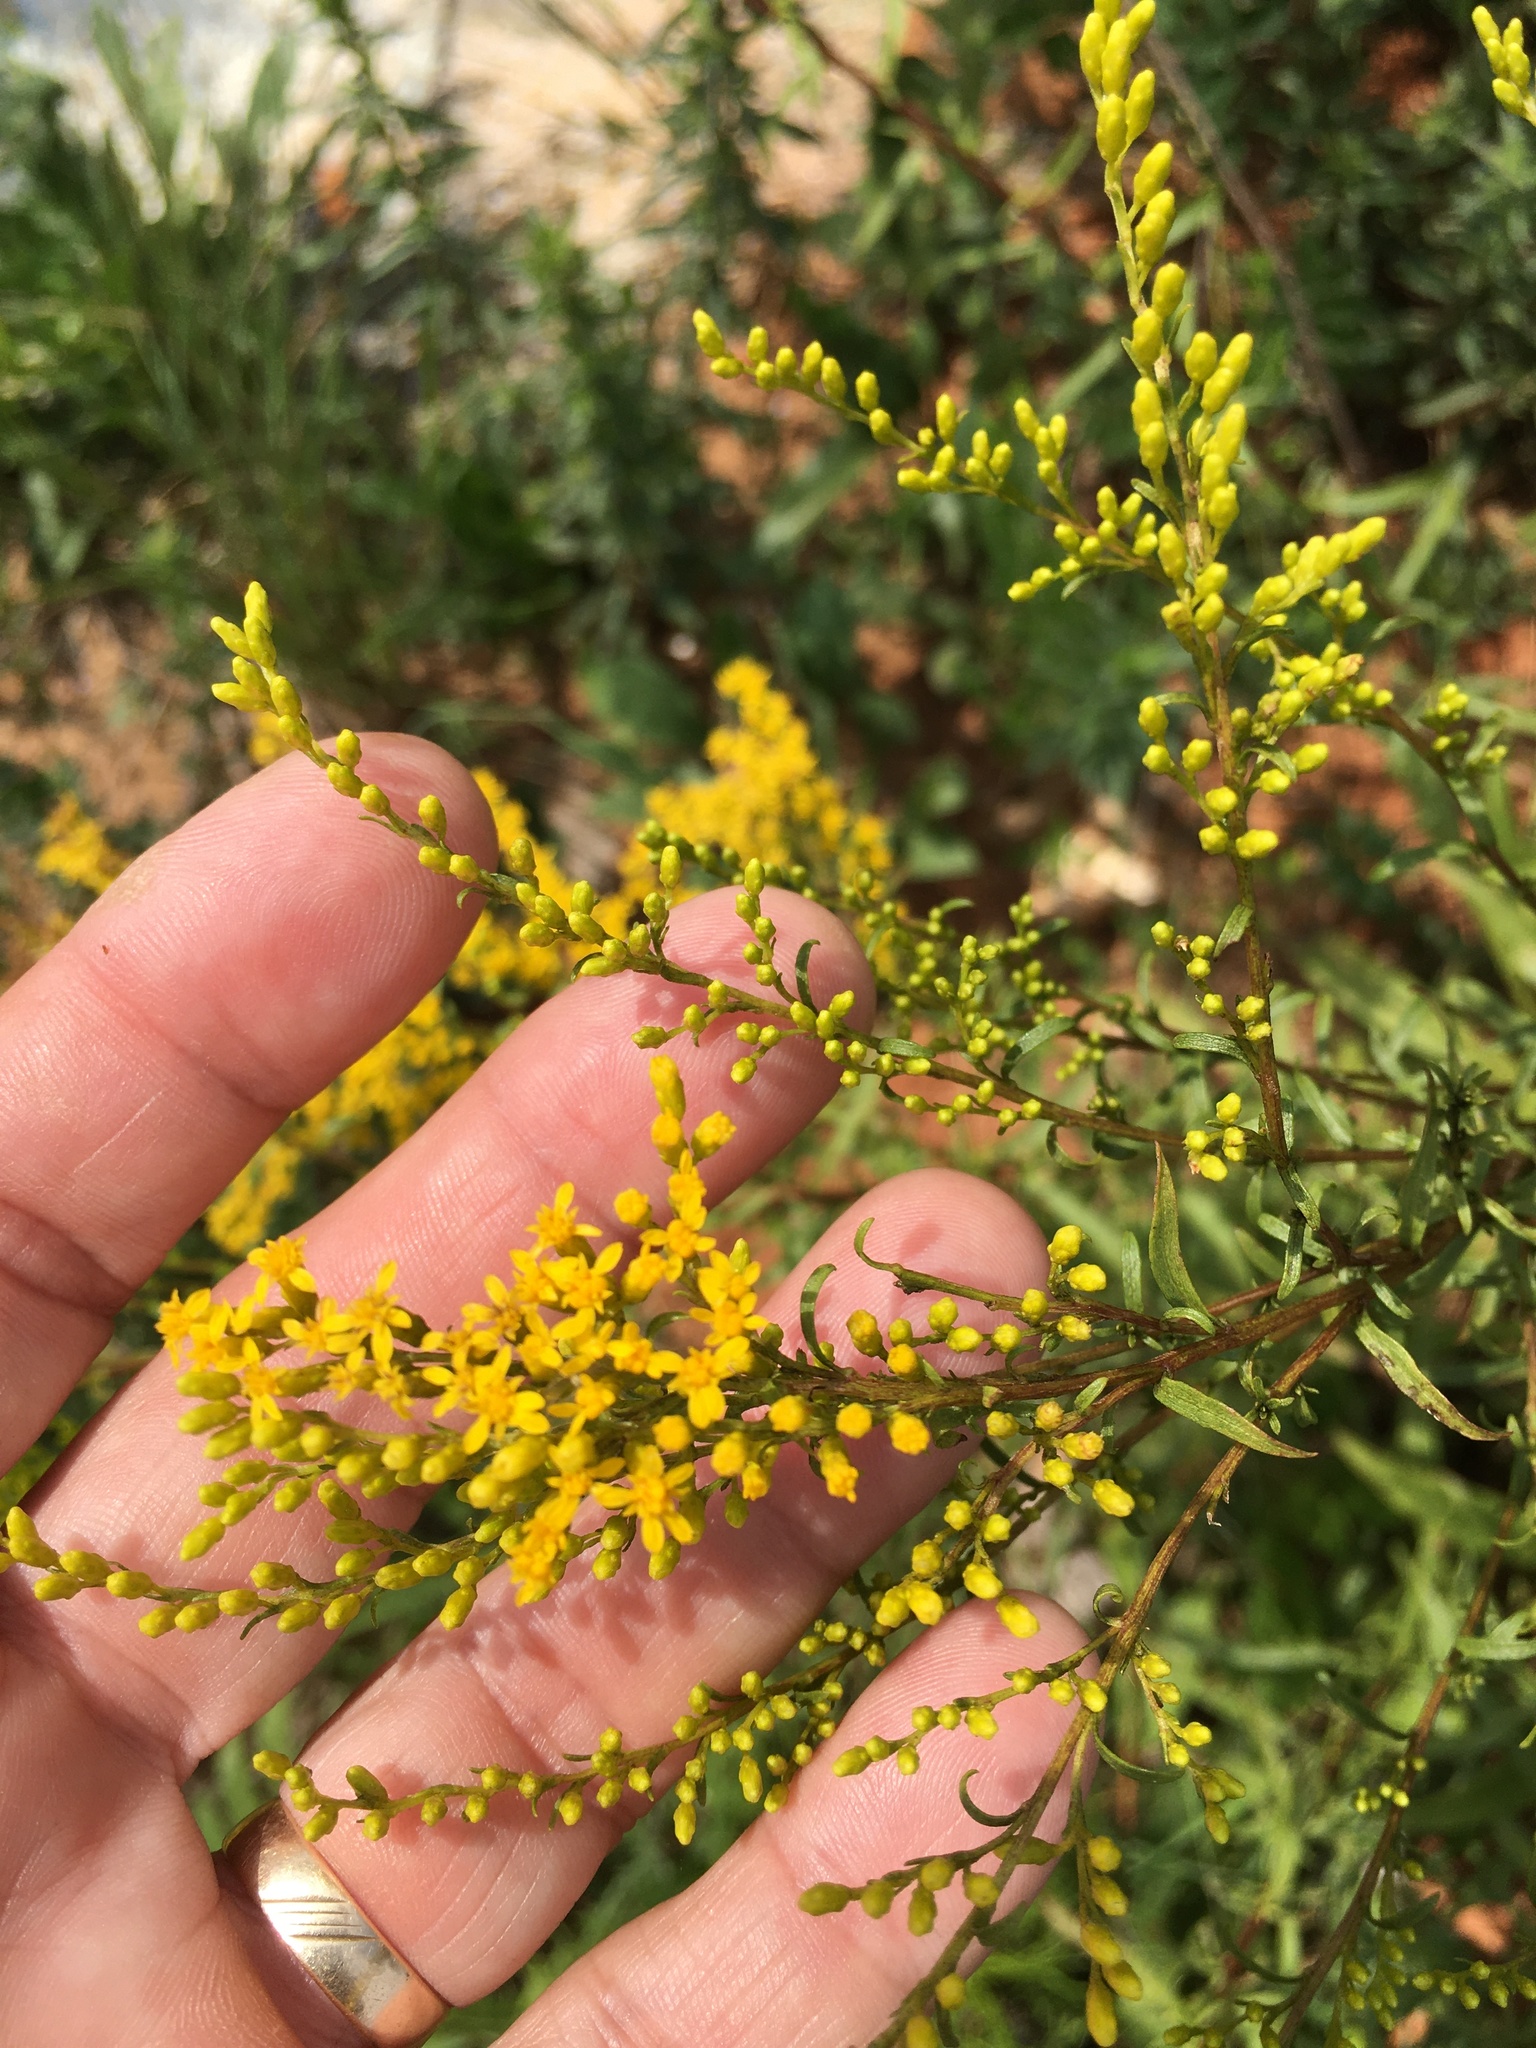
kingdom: Plantae
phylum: Tracheophyta
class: Magnoliopsida
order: Asterales
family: Asteraceae
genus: Solidago
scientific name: Solidago pinetorum
